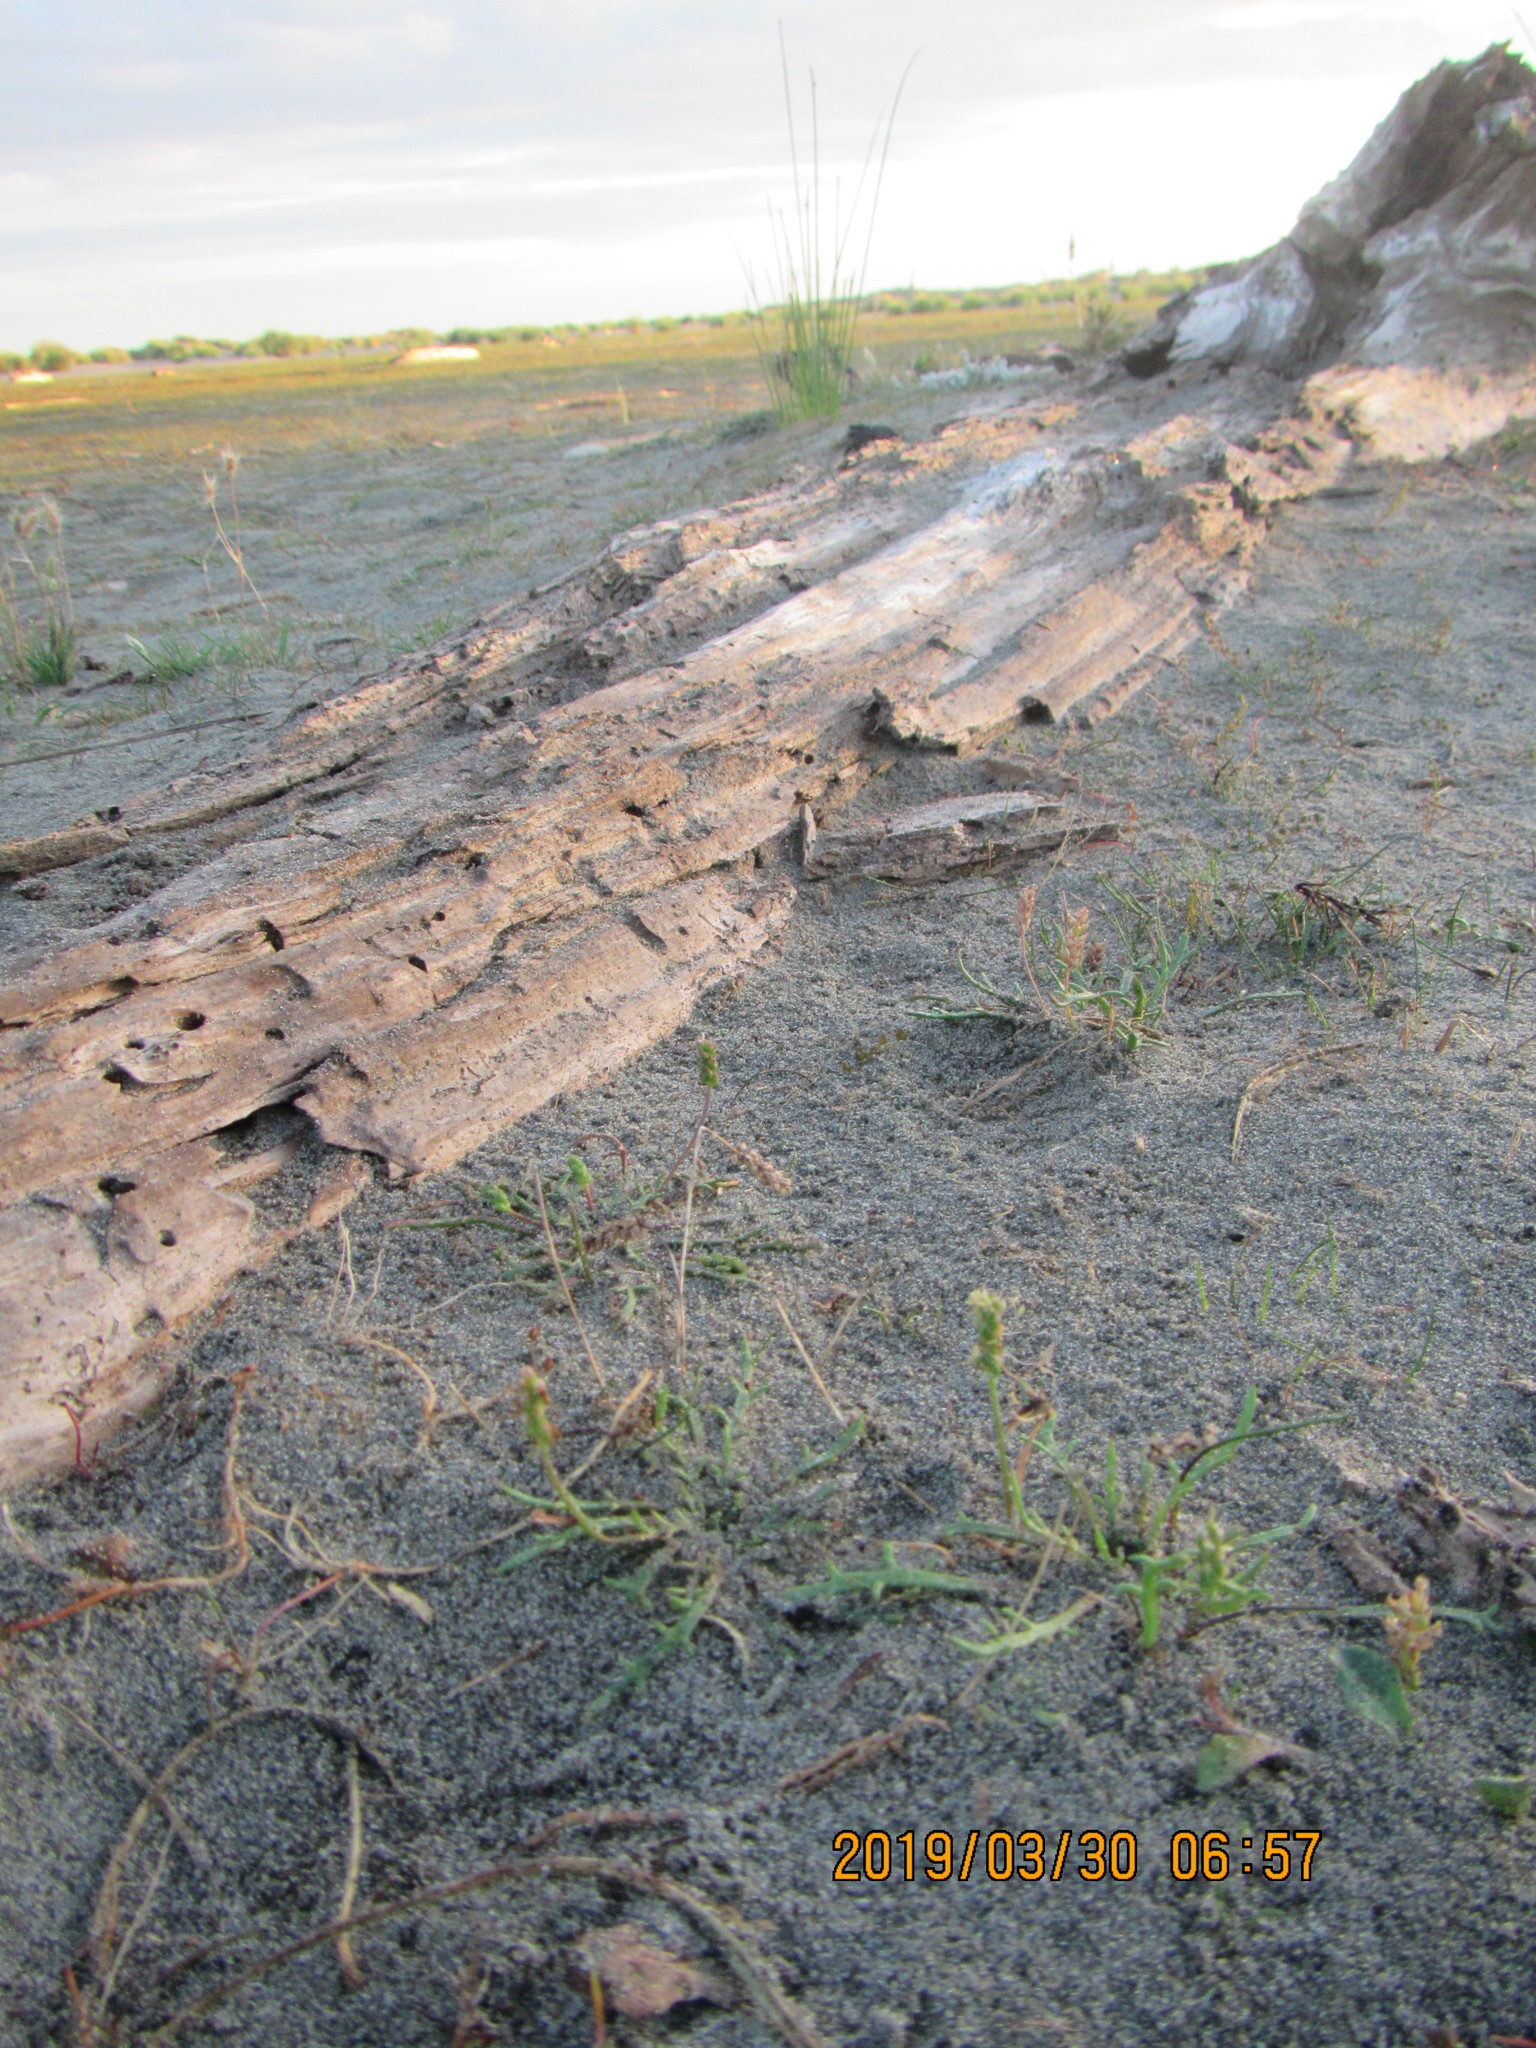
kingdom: Plantae
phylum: Tracheophyta
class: Magnoliopsida
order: Lamiales
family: Plantaginaceae
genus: Plantago
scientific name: Plantago coronopus
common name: Buck's-horn plantain
